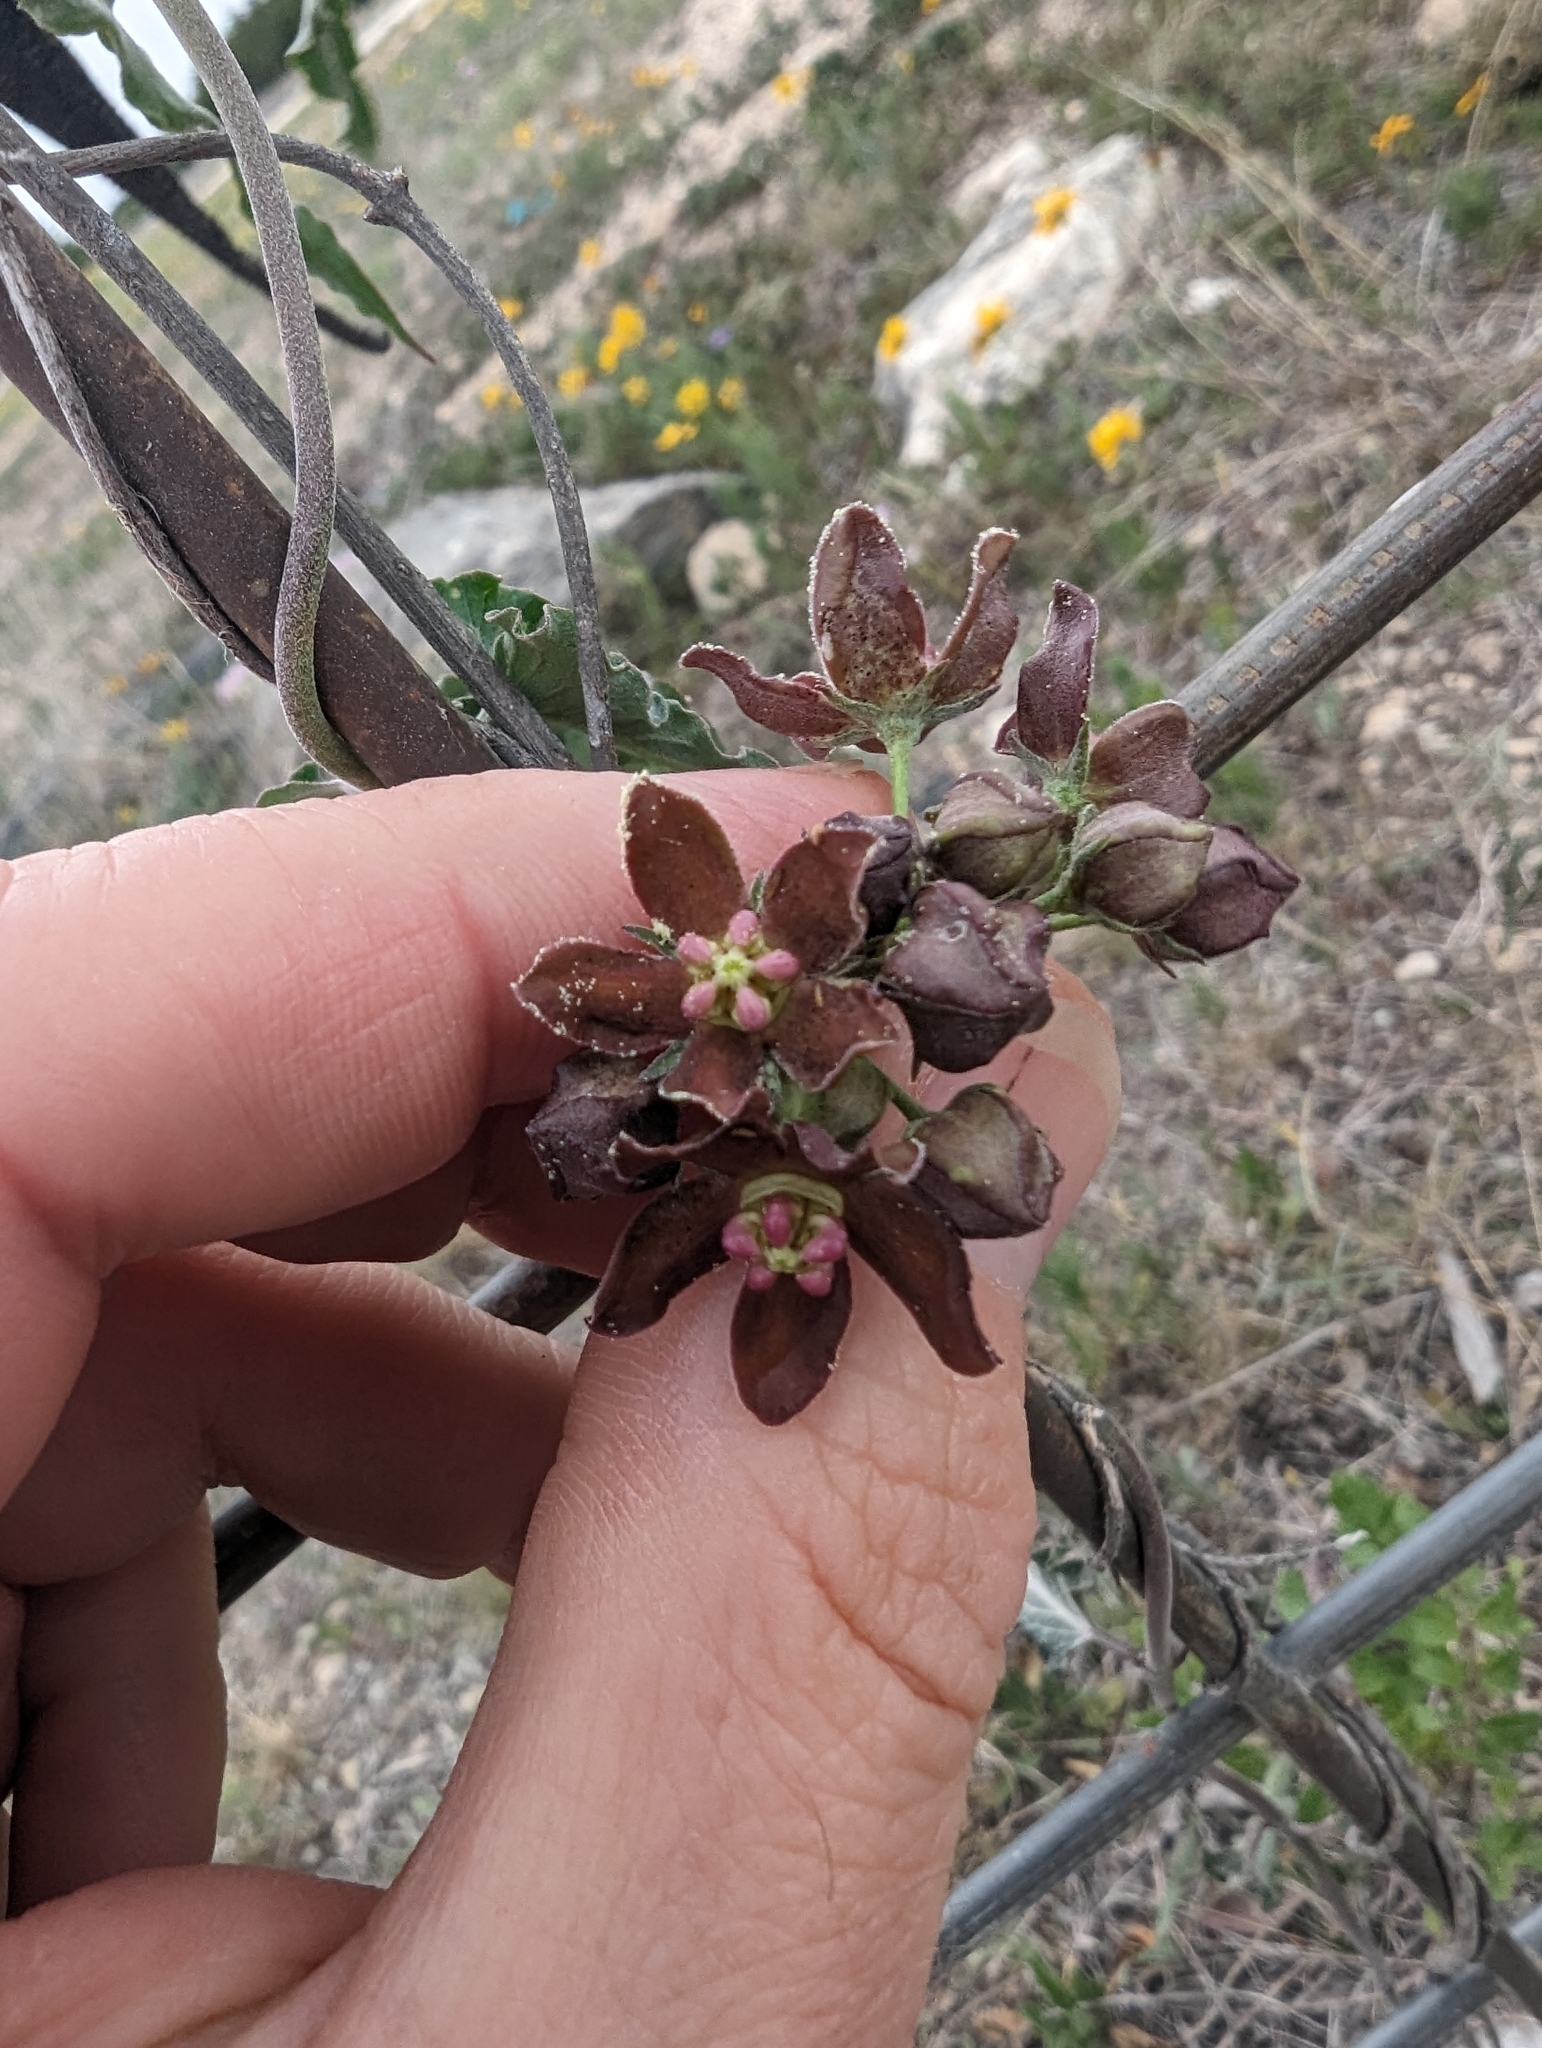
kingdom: Plantae
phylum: Tracheophyta
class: Magnoliopsida
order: Gentianales
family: Apocynaceae
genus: Funastrum
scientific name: Funastrum crispum
